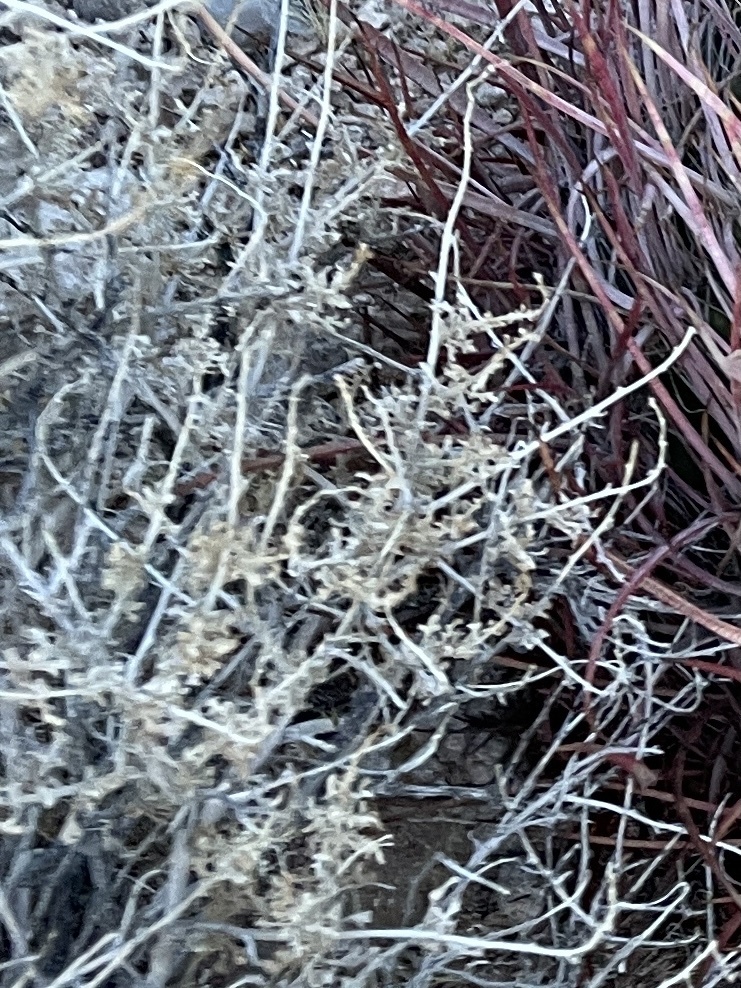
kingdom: Plantae
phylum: Tracheophyta
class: Magnoliopsida
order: Asterales
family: Asteraceae
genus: Ambrosia
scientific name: Ambrosia dumosa
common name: Bur-sage
